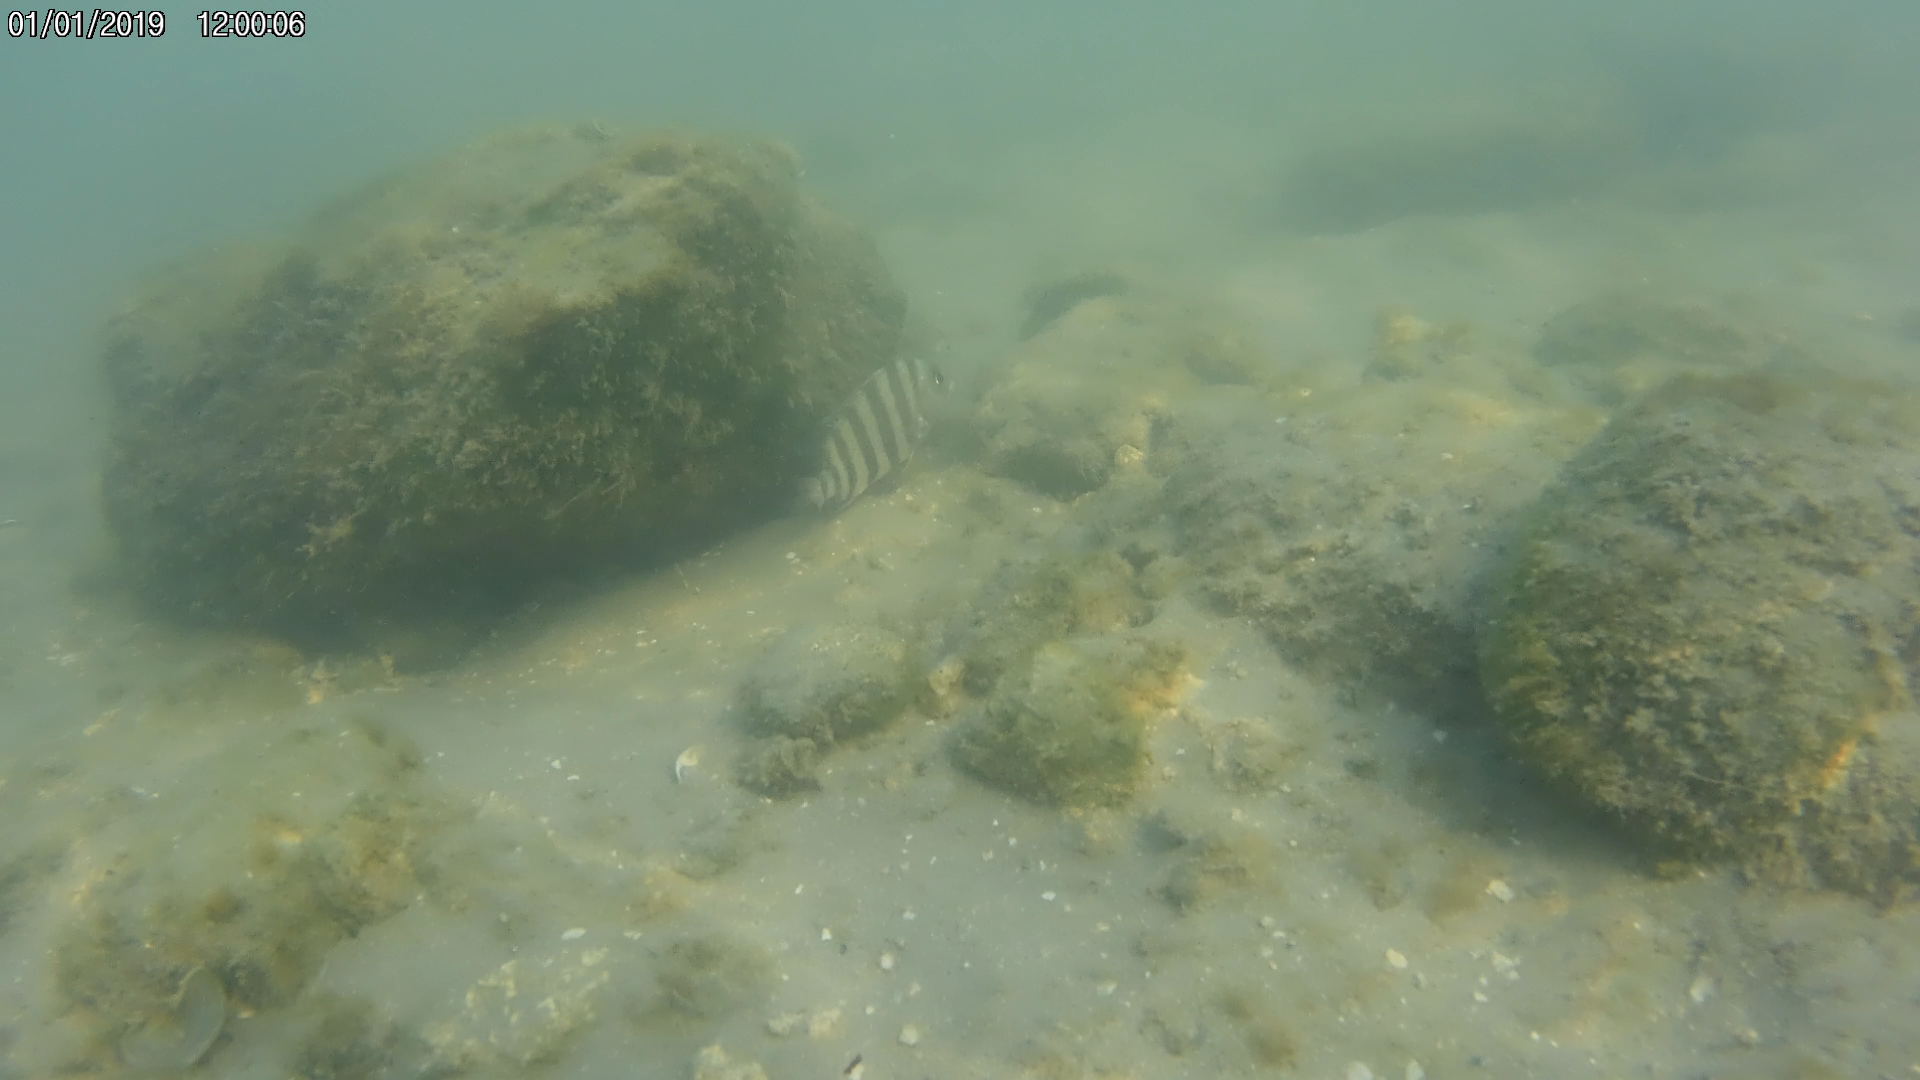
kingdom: Animalia
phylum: Chordata
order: Perciformes
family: Sparidae
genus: Archosargus
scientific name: Archosargus probatocephalus
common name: Sheepshead
